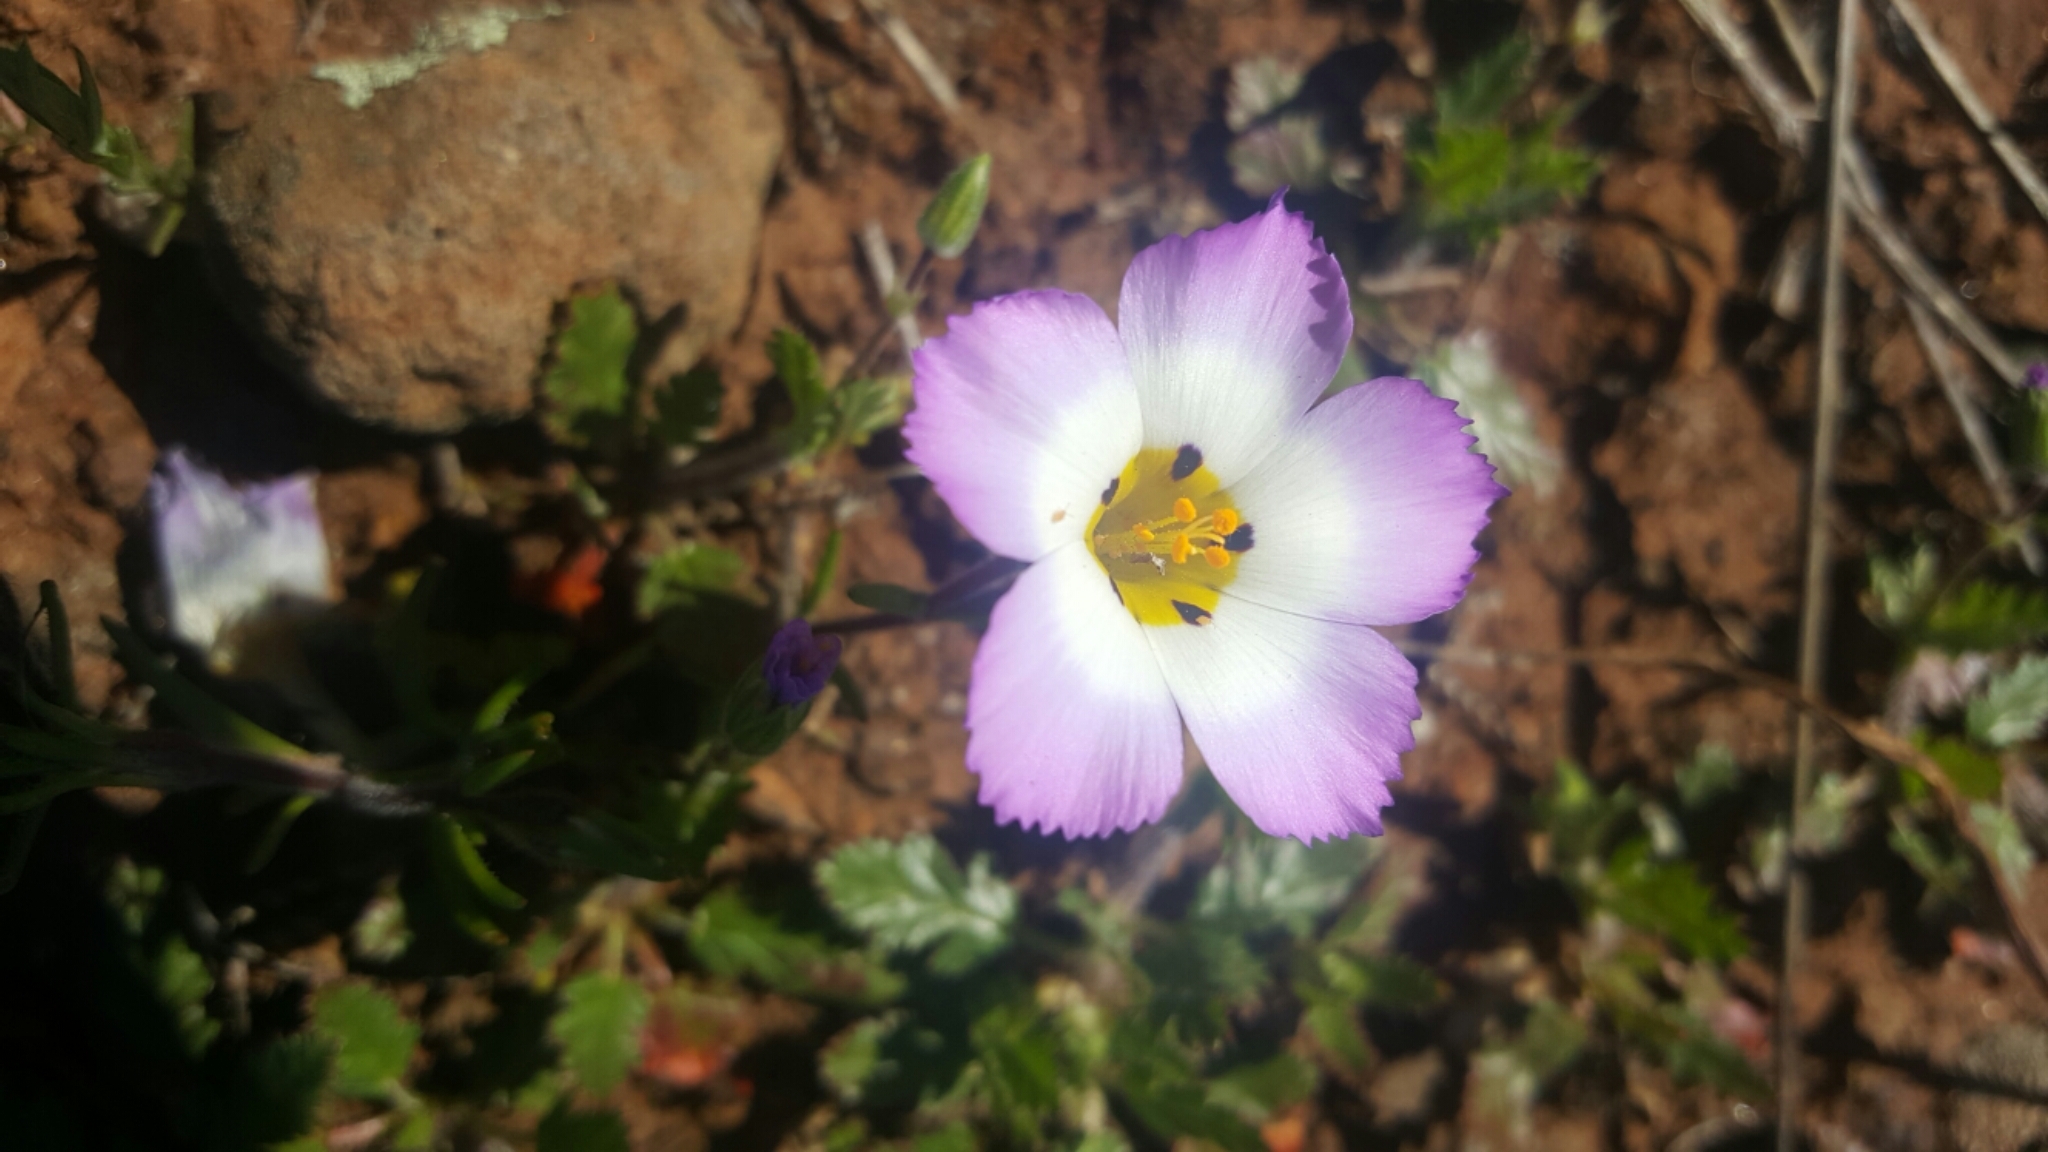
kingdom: Plantae
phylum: Tracheophyta
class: Magnoliopsida
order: Ericales
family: Polemoniaceae
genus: Linanthus
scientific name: Linanthus dianthiflorus
